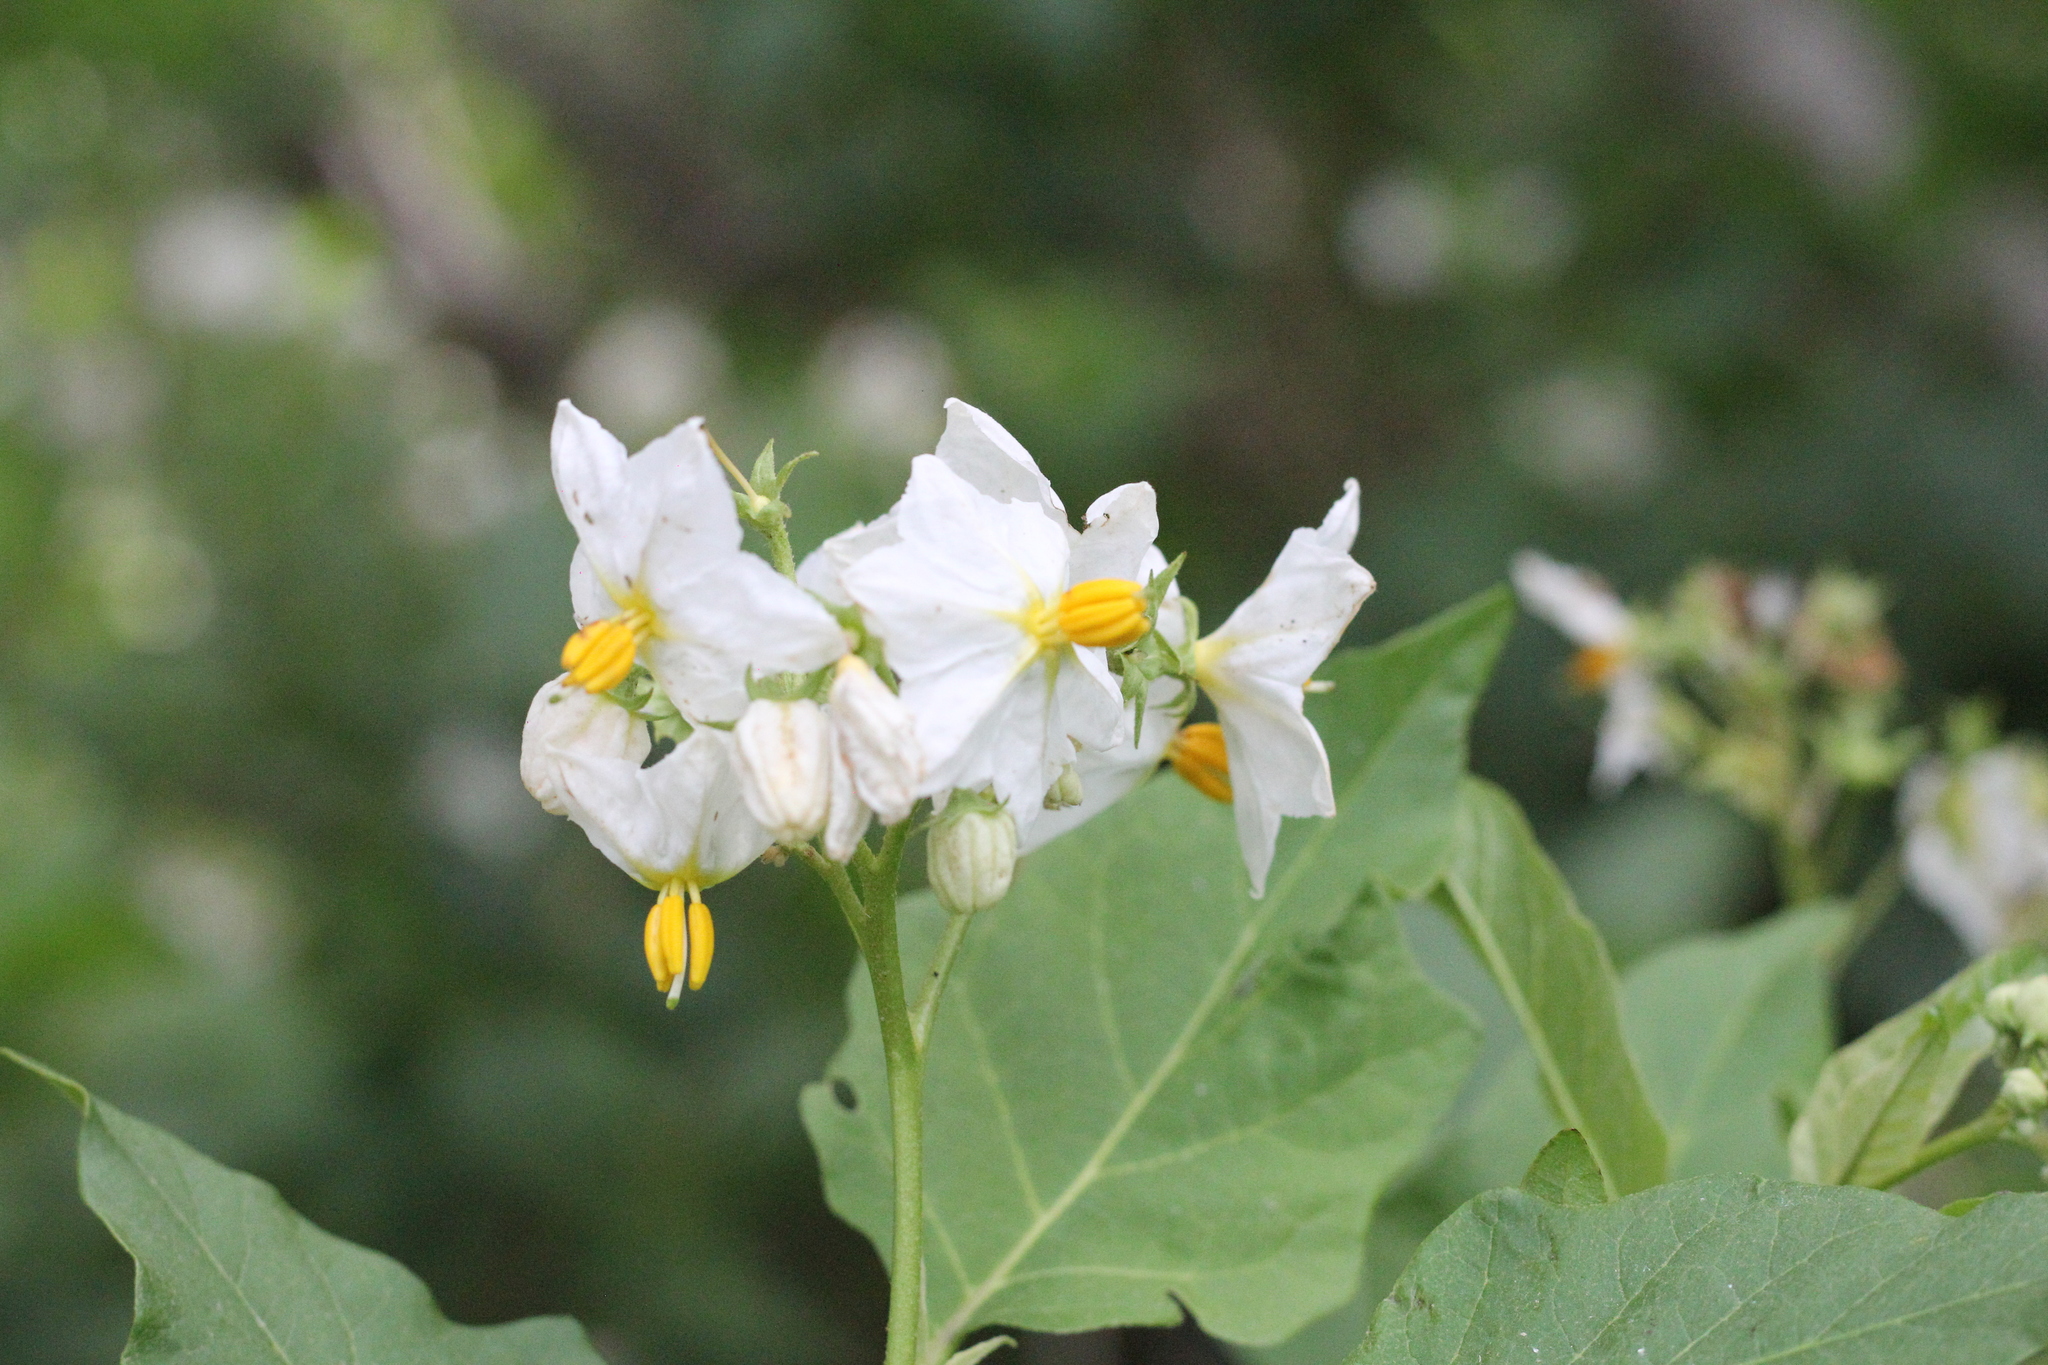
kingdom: Plantae
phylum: Tracheophyta
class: Magnoliopsida
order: Solanales
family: Solanaceae
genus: Solanum
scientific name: Solanum bonariense
